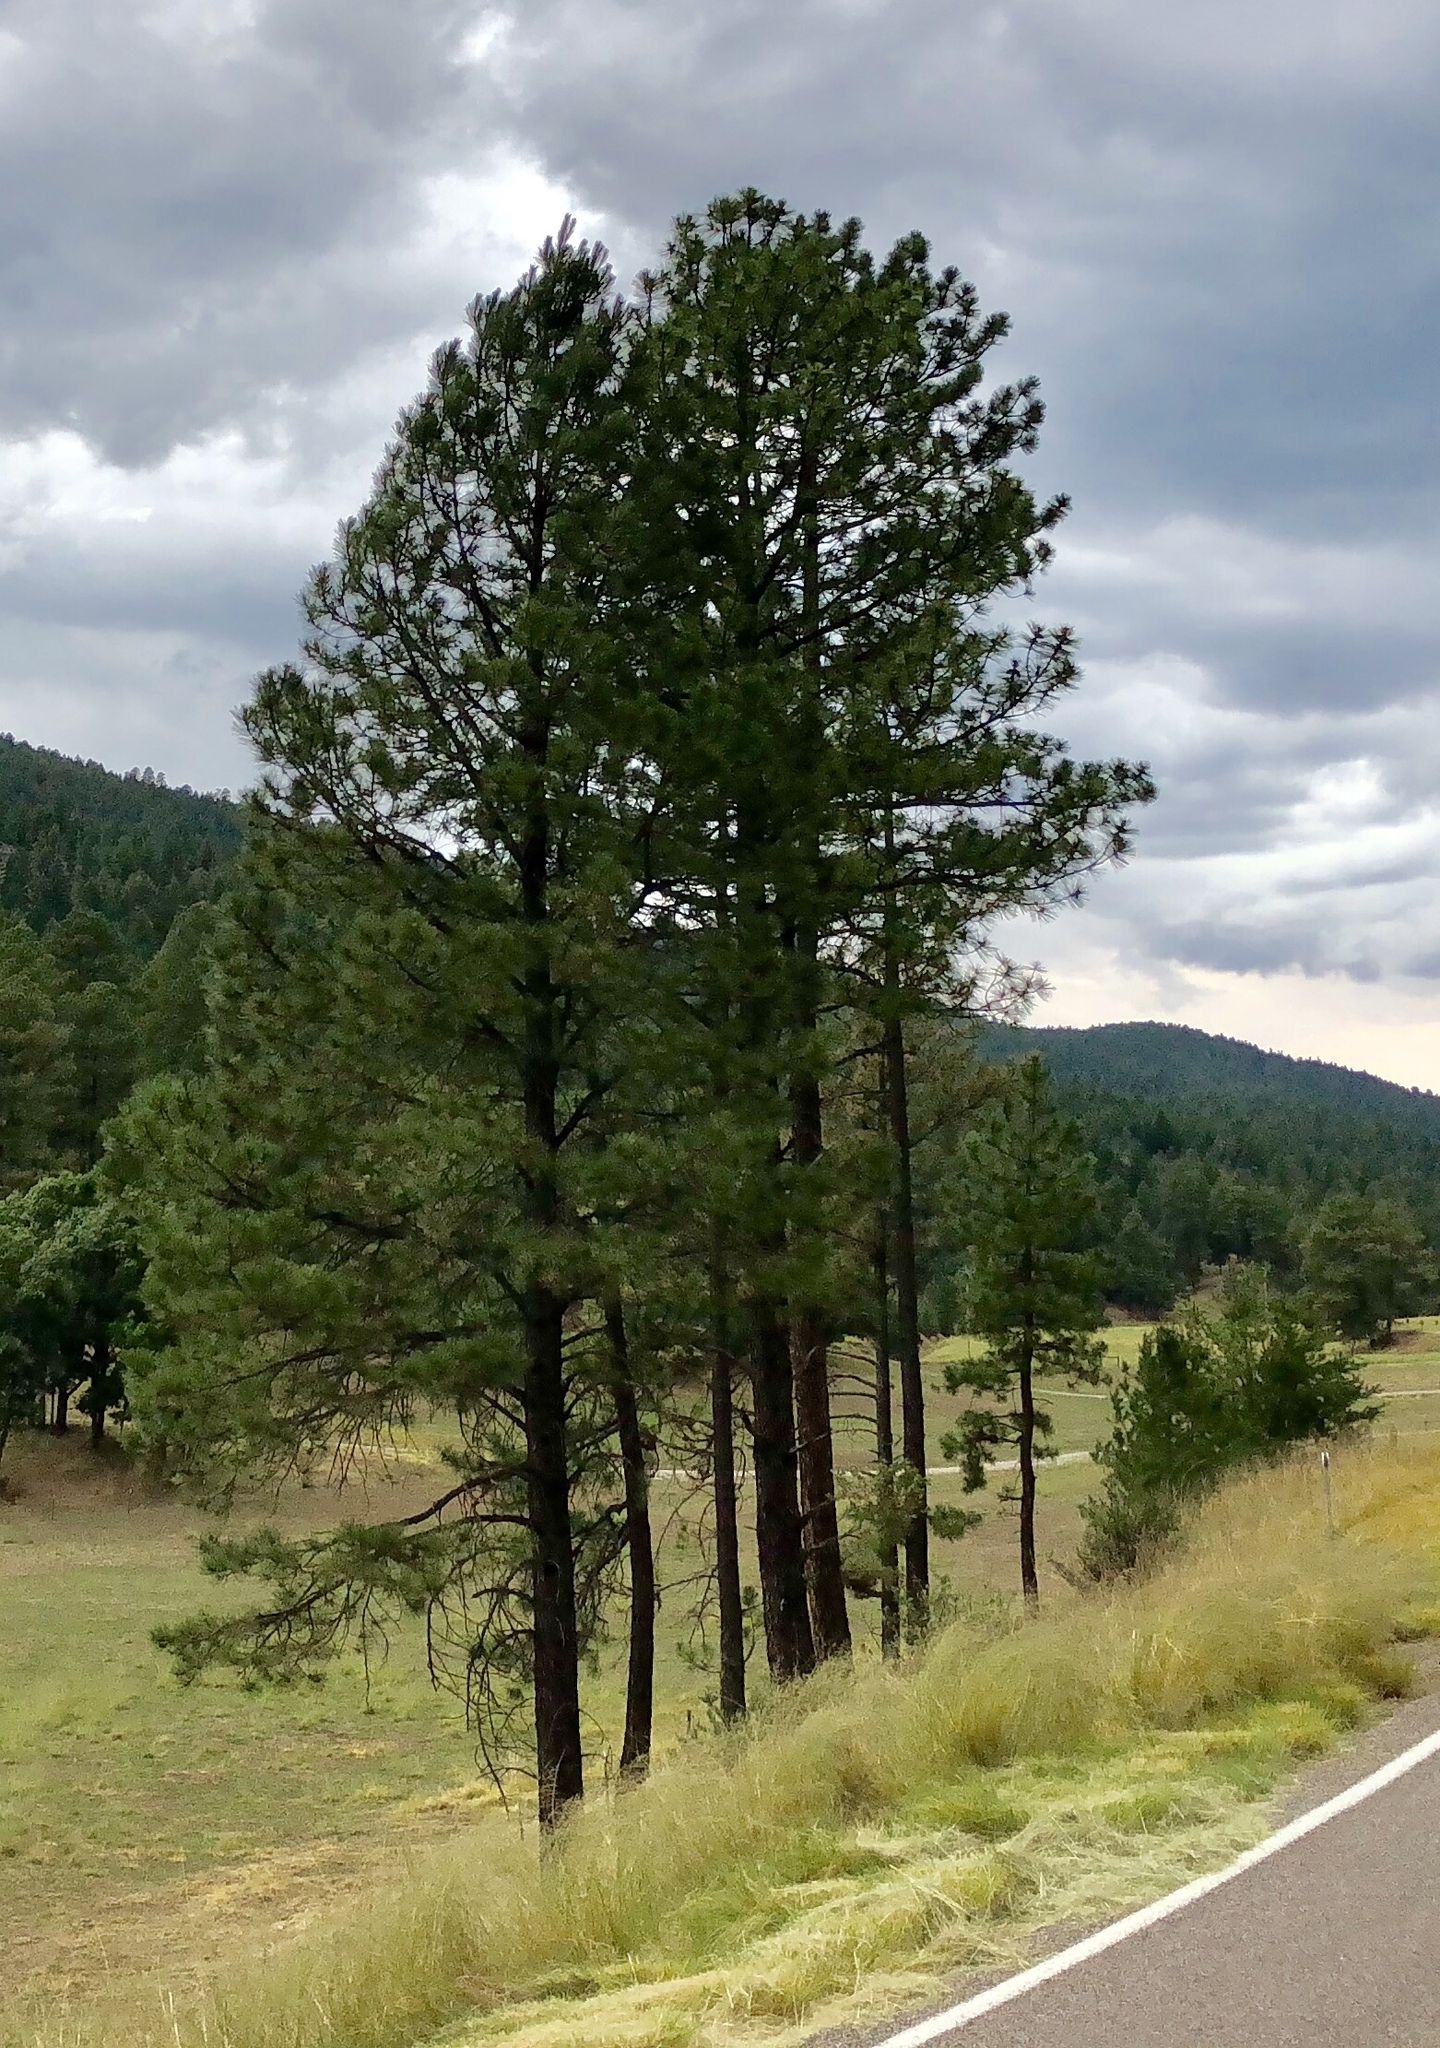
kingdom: Plantae
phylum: Tracheophyta
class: Pinopsida
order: Pinales
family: Pinaceae
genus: Pinus
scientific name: Pinus ponderosa
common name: Western yellow-pine
